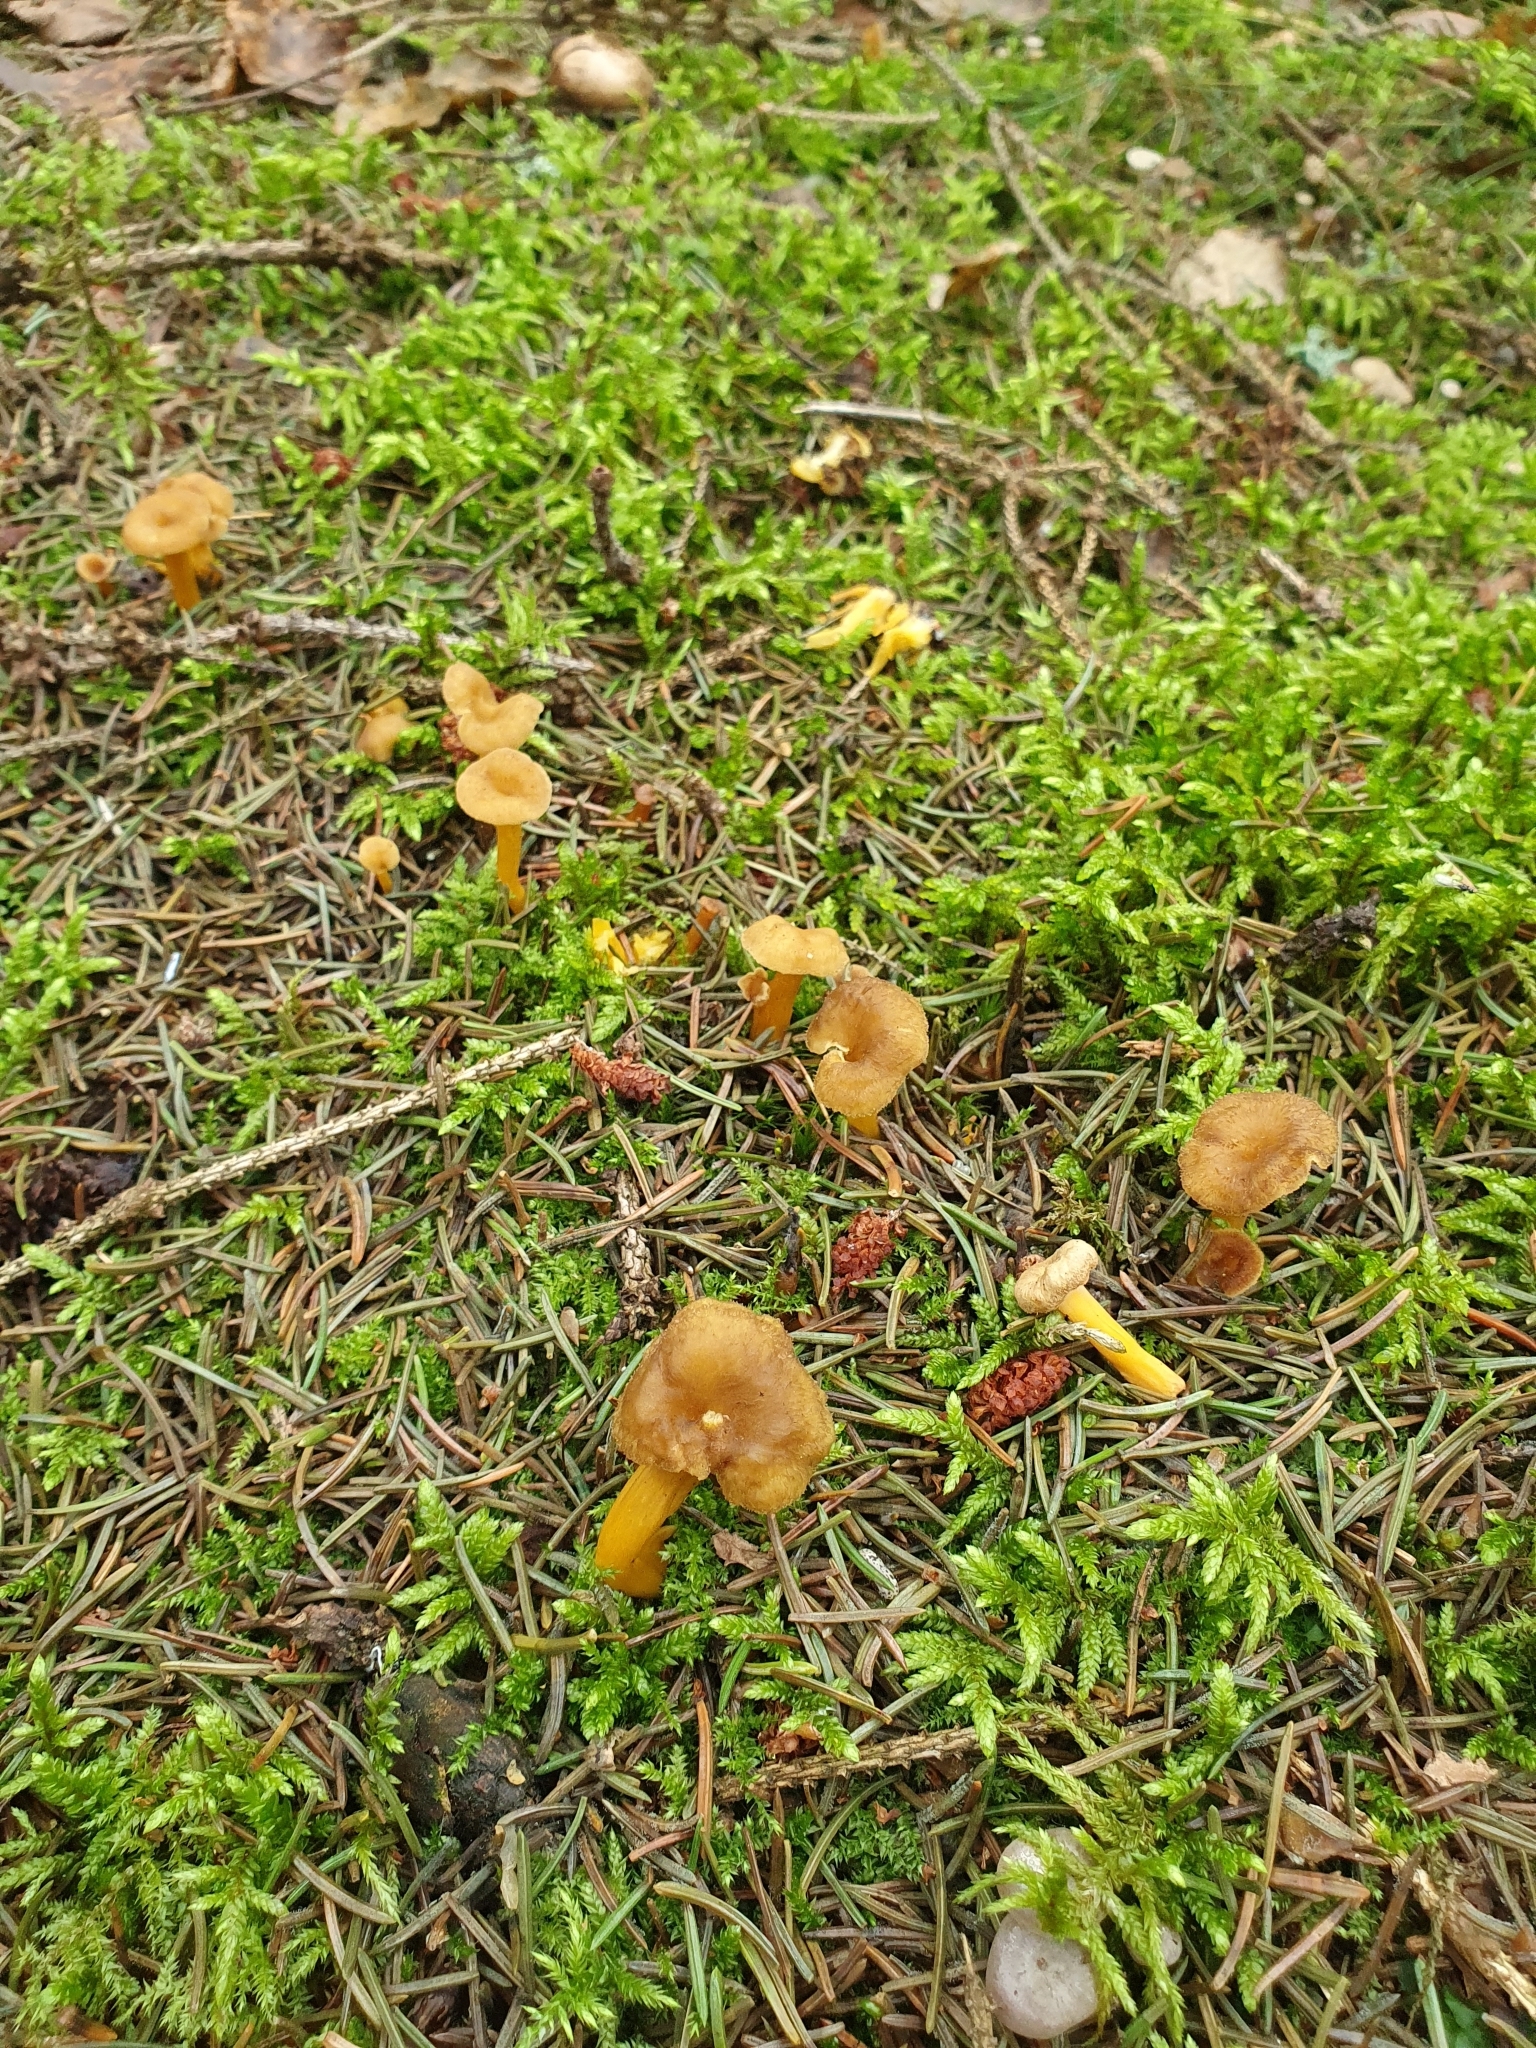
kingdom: Fungi
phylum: Basidiomycota
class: Agaricomycetes
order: Cantharellales
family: Hydnaceae
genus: Craterellus
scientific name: Craterellus tubaeformis
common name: Yellowfoot
